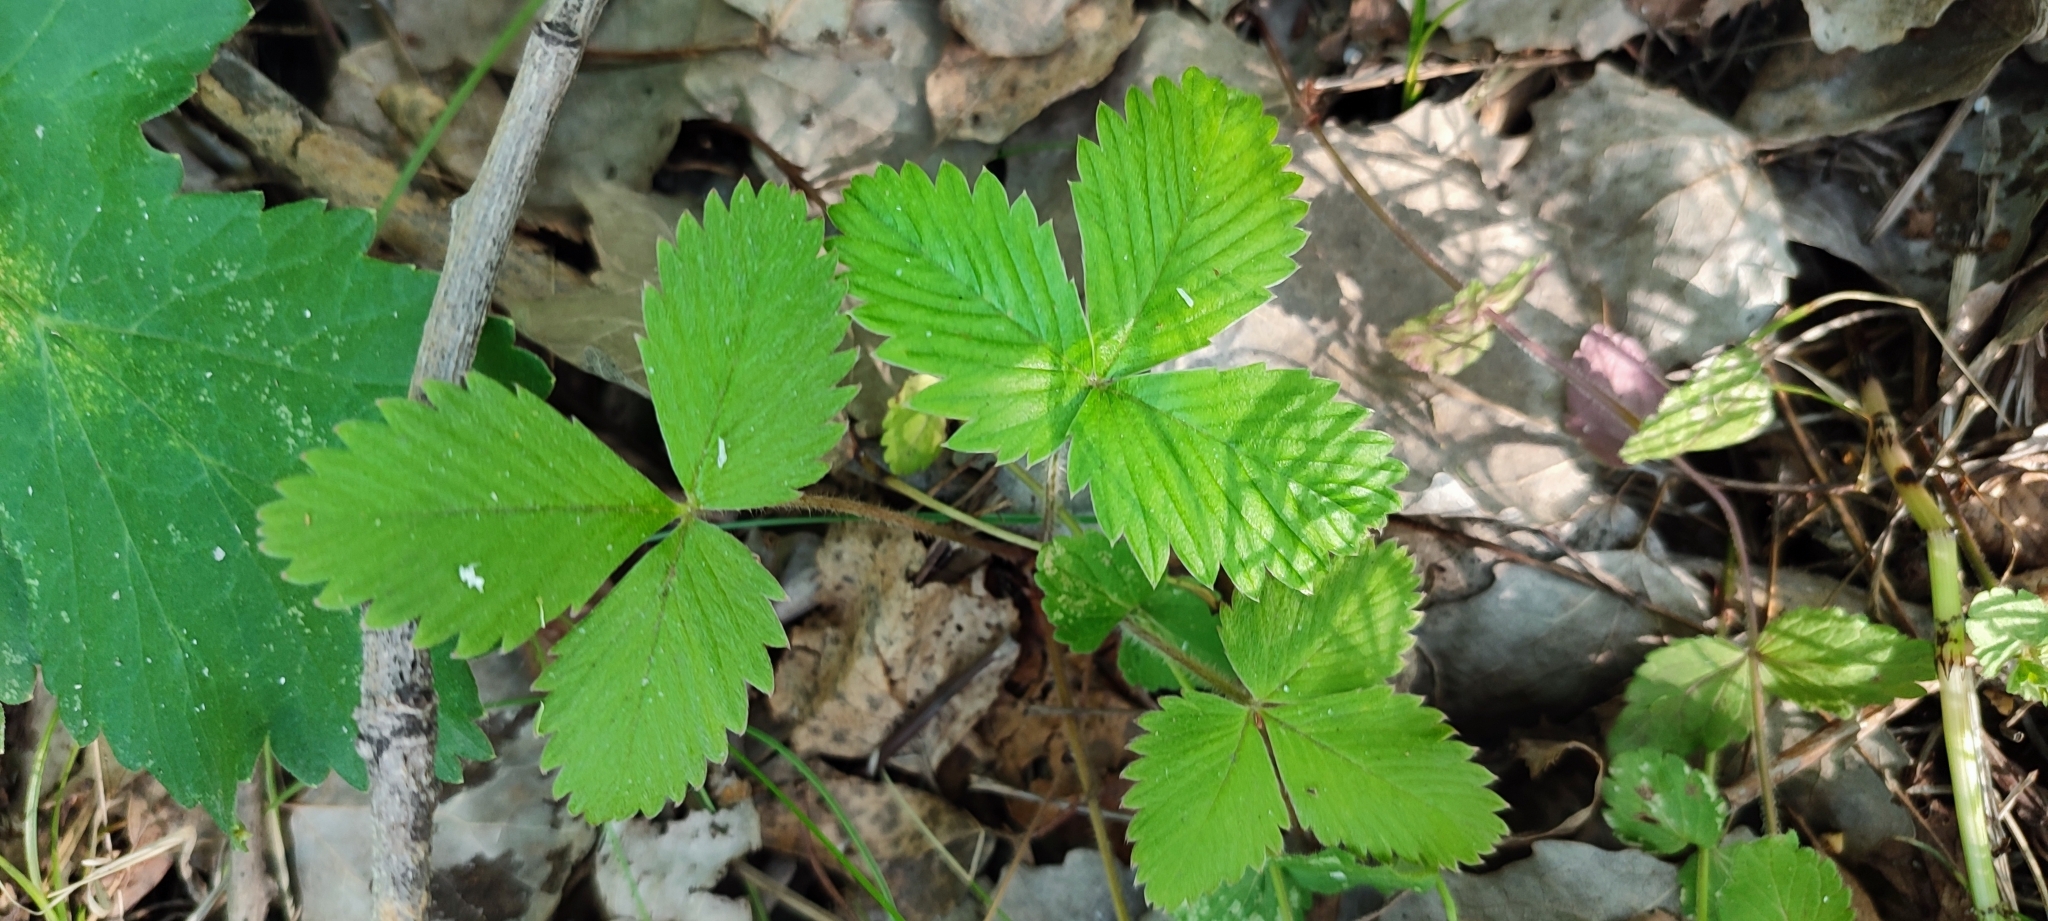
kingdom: Plantae
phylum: Tracheophyta
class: Magnoliopsida
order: Rosales
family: Rosaceae
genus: Fragaria
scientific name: Fragaria vesca
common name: Wild strawberry
